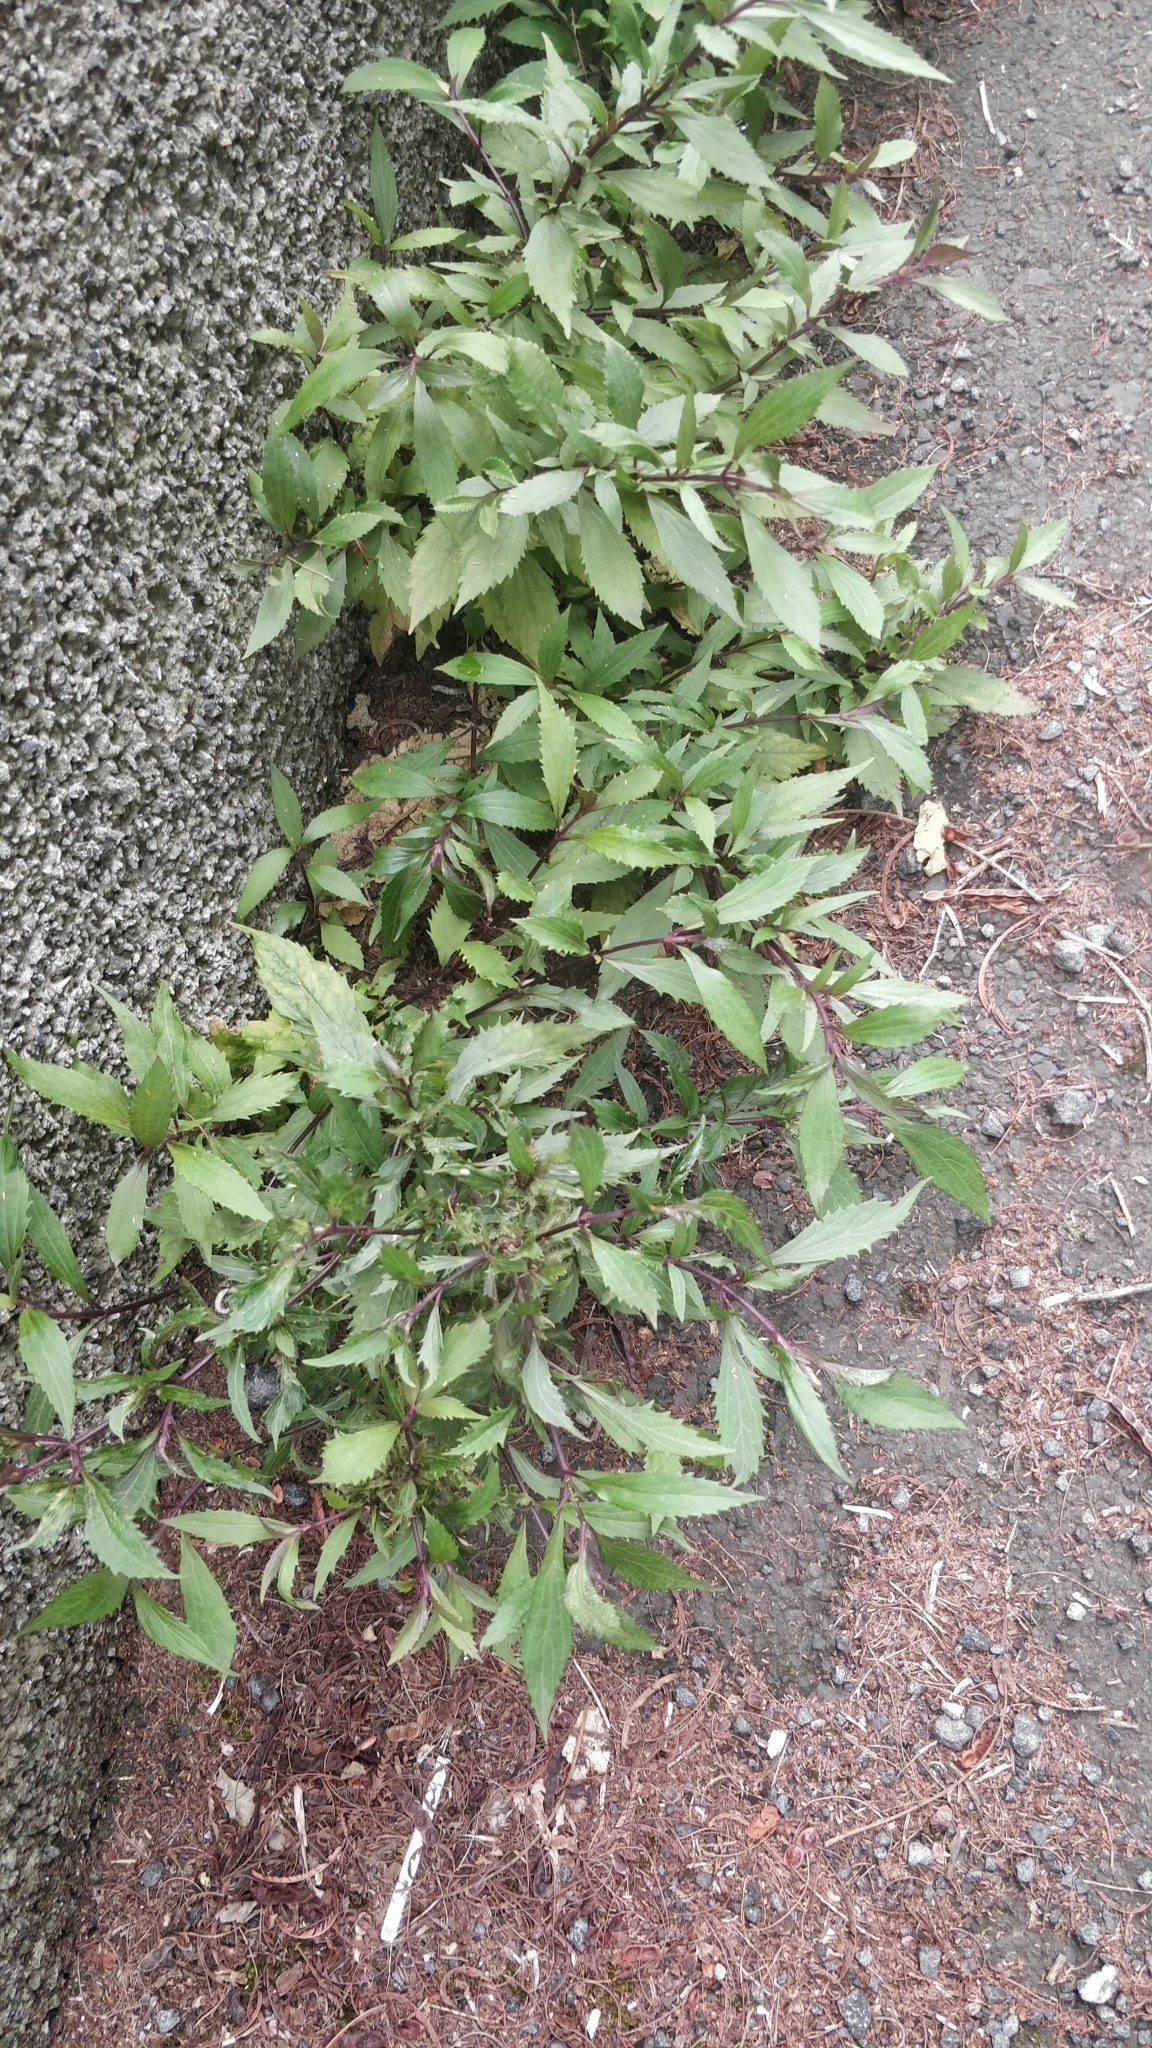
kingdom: Plantae
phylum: Tracheophyta
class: Magnoliopsida
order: Asterales
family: Asteraceae
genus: Ageratina
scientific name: Ageratina riparia
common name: Creeping croftonweed
